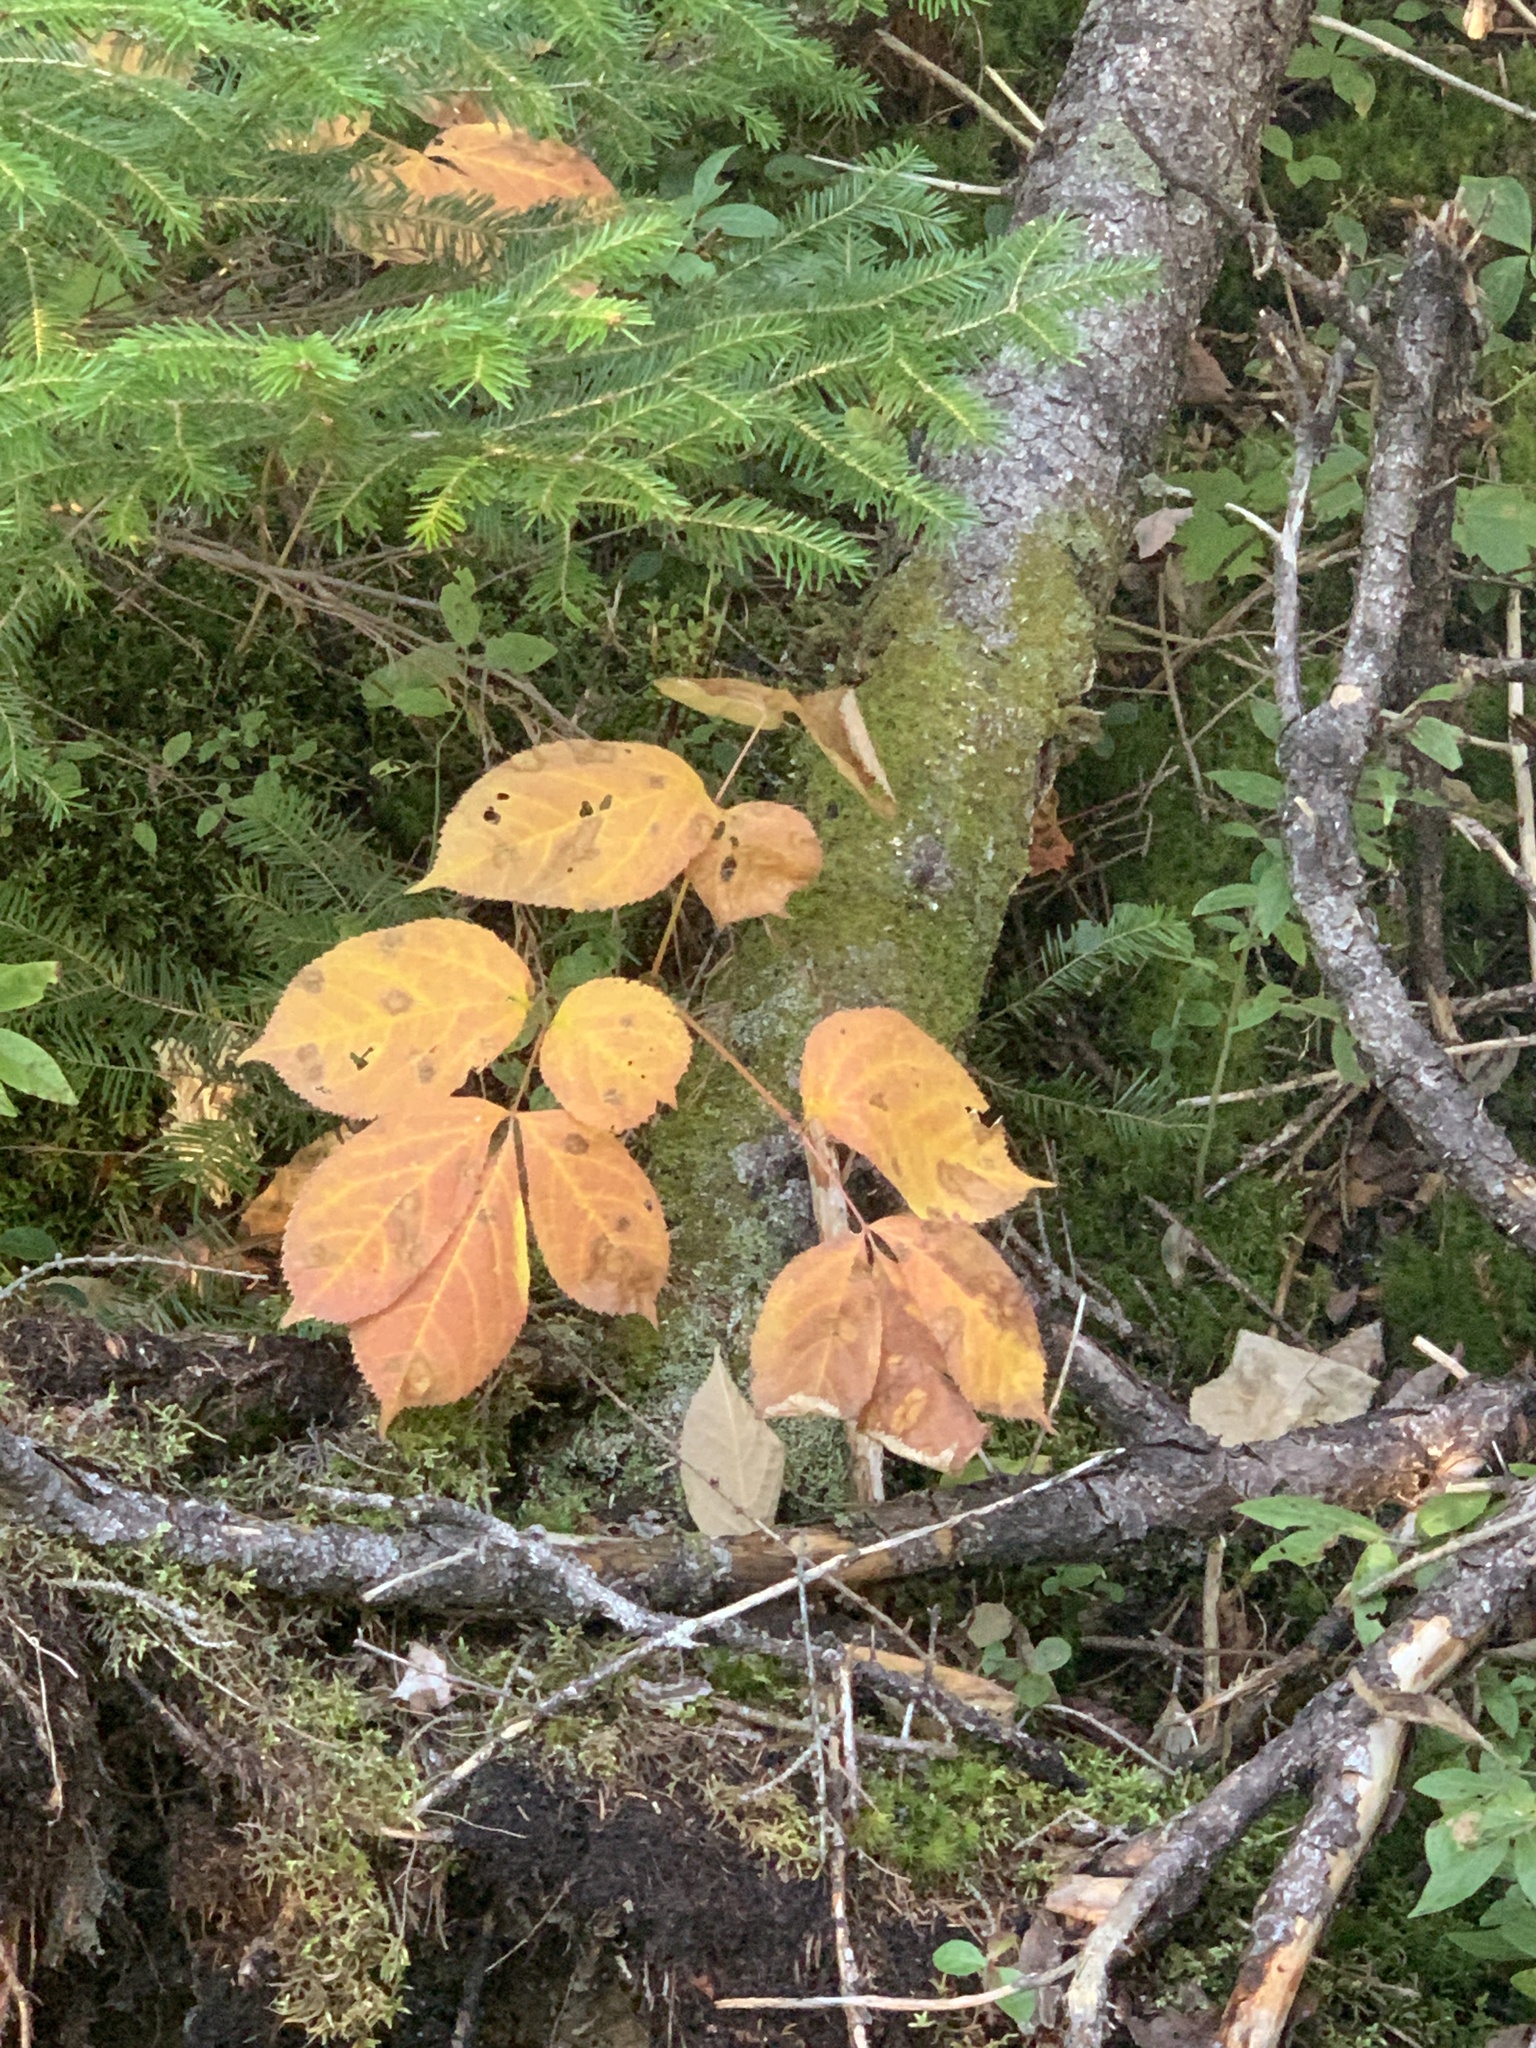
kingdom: Plantae
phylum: Tracheophyta
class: Magnoliopsida
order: Apiales
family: Araliaceae
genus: Aralia
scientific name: Aralia nudicaulis
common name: Wild sarsaparilla
